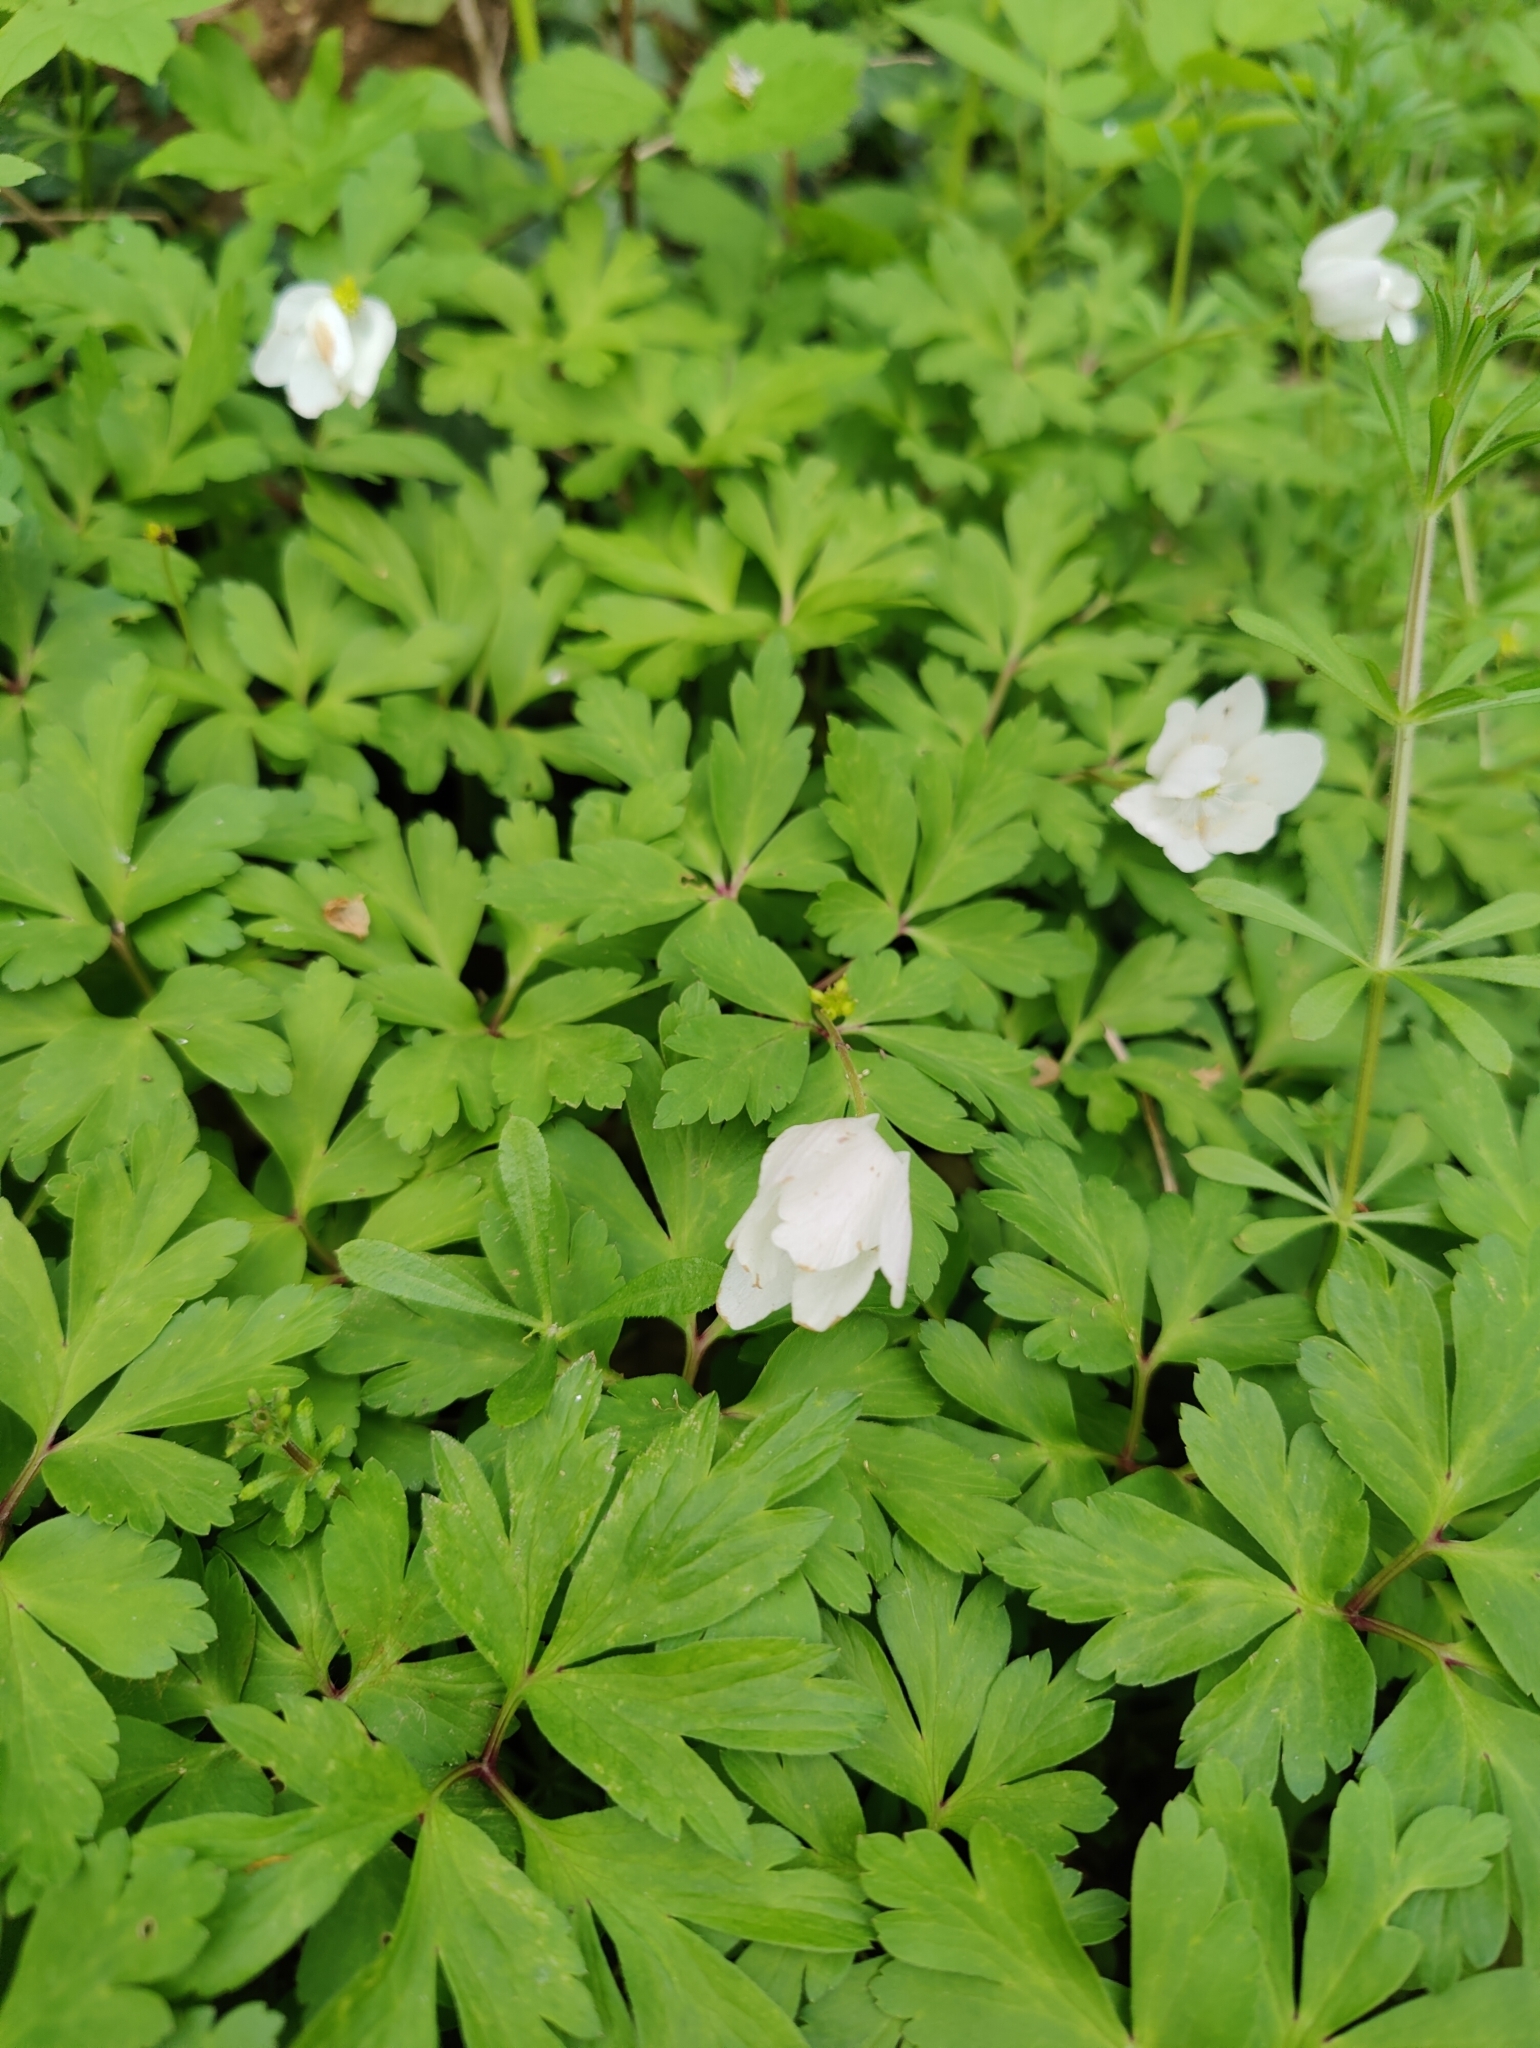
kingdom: Plantae
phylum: Tracheophyta
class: Magnoliopsida
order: Ranunculales
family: Ranunculaceae
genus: Anemone
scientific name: Anemone nemorosa
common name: Wood anemone
